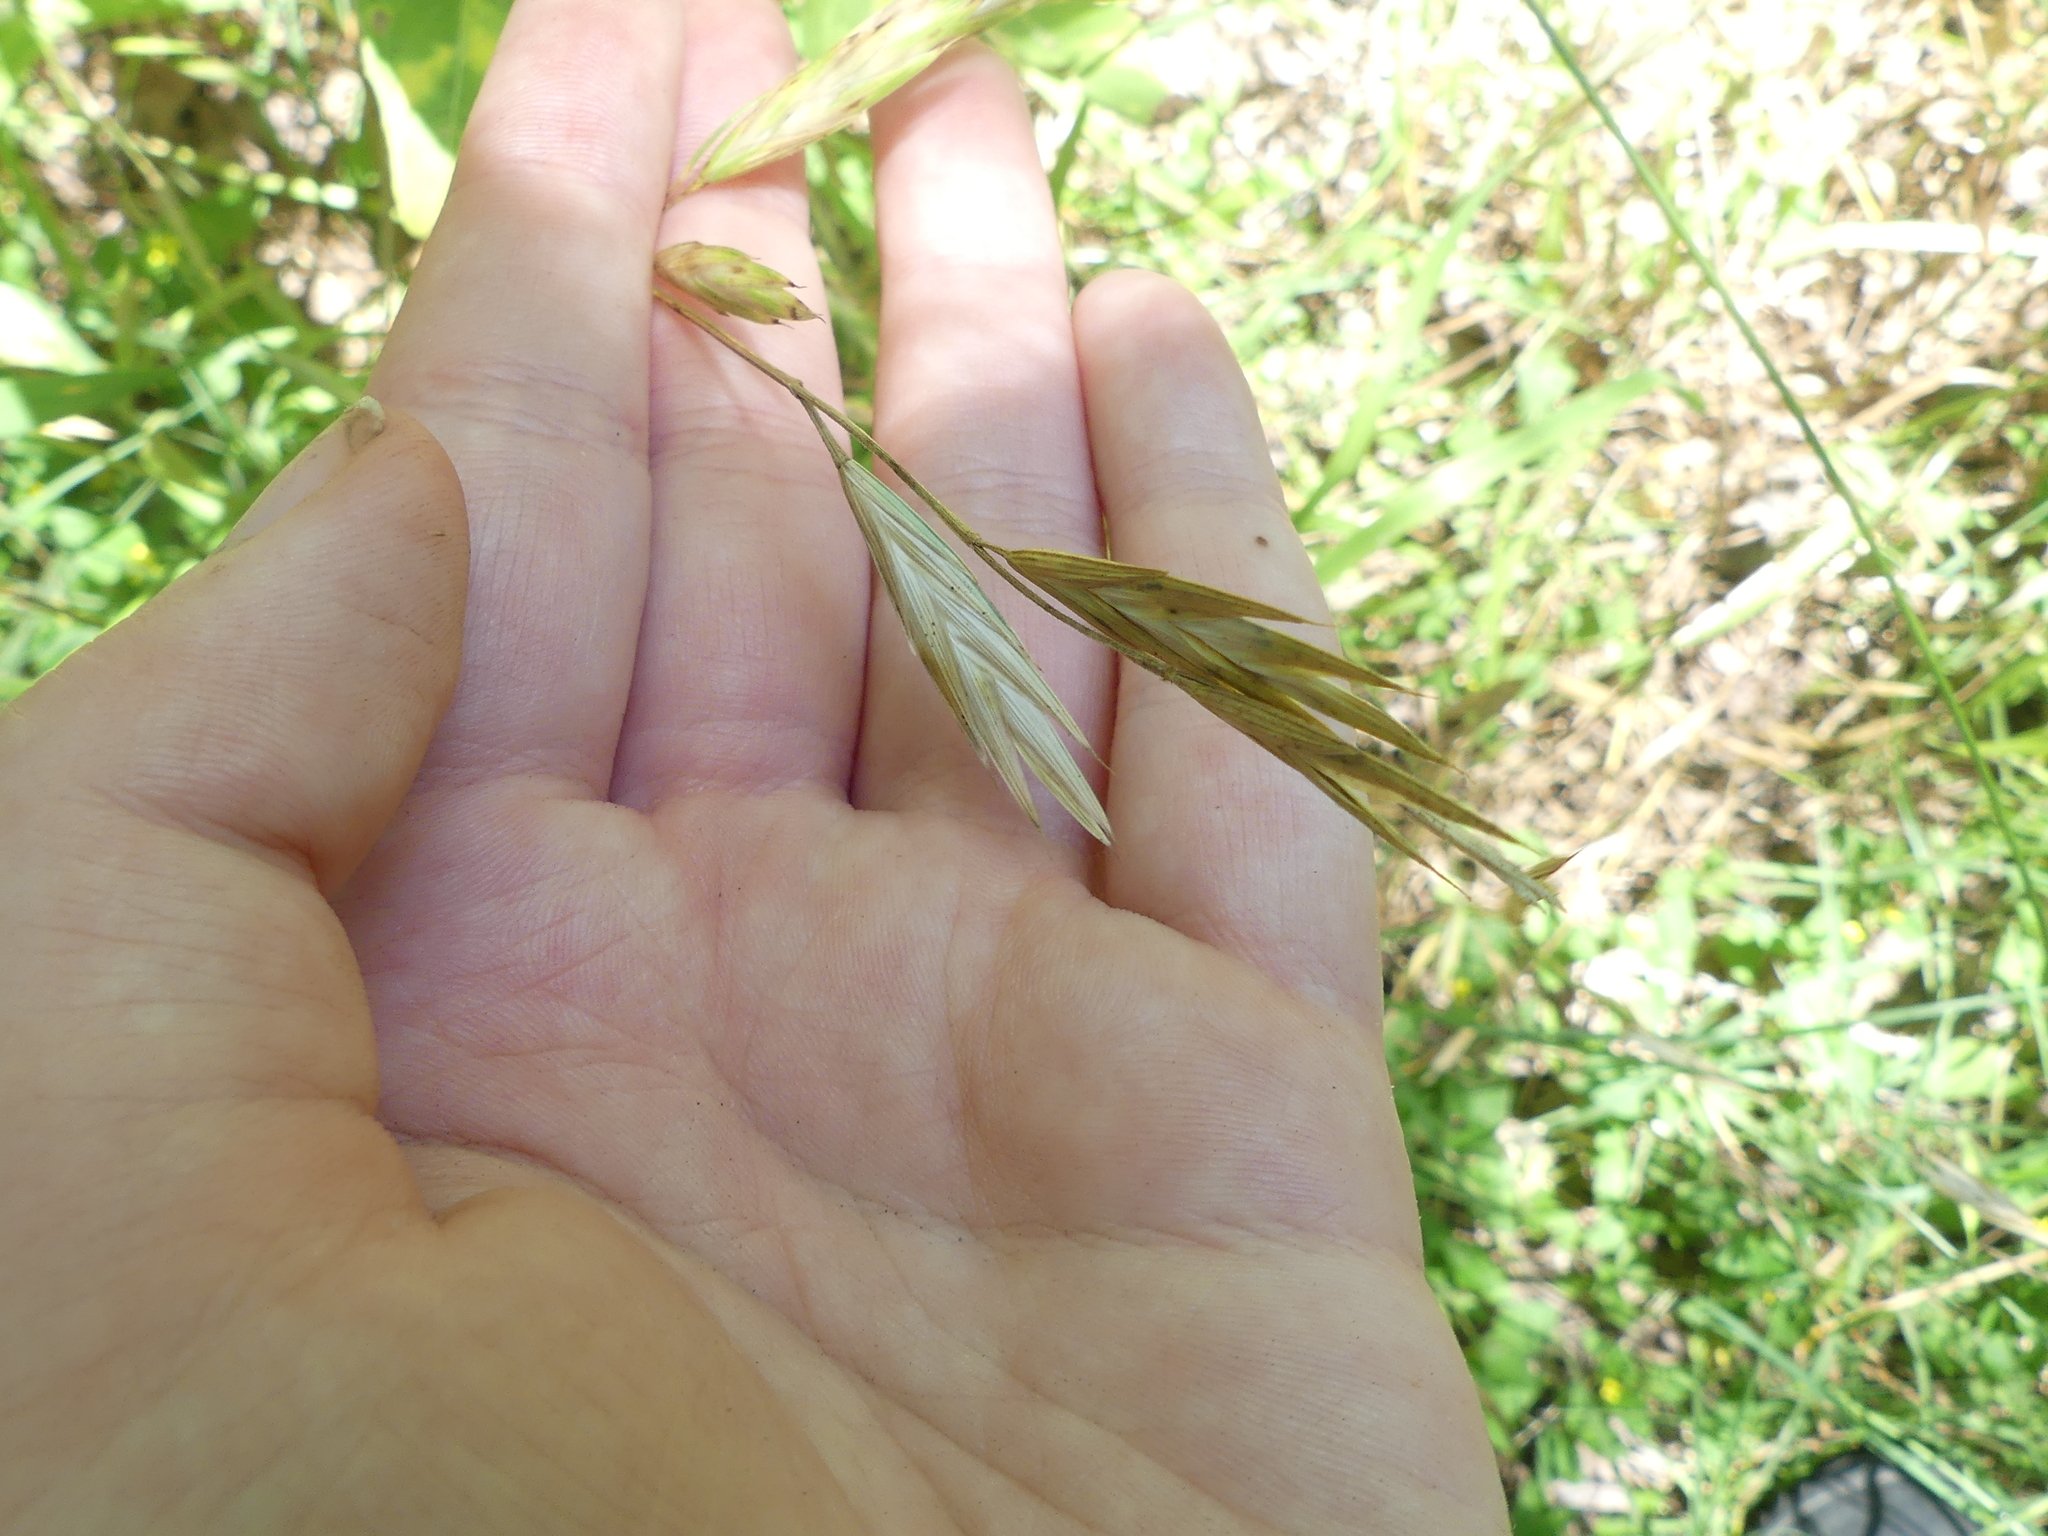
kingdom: Plantae
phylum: Tracheophyta
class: Liliopsida
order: Poales
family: Poaceae
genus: Bromus
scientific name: Bromus catharticus
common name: Rescuegrass
